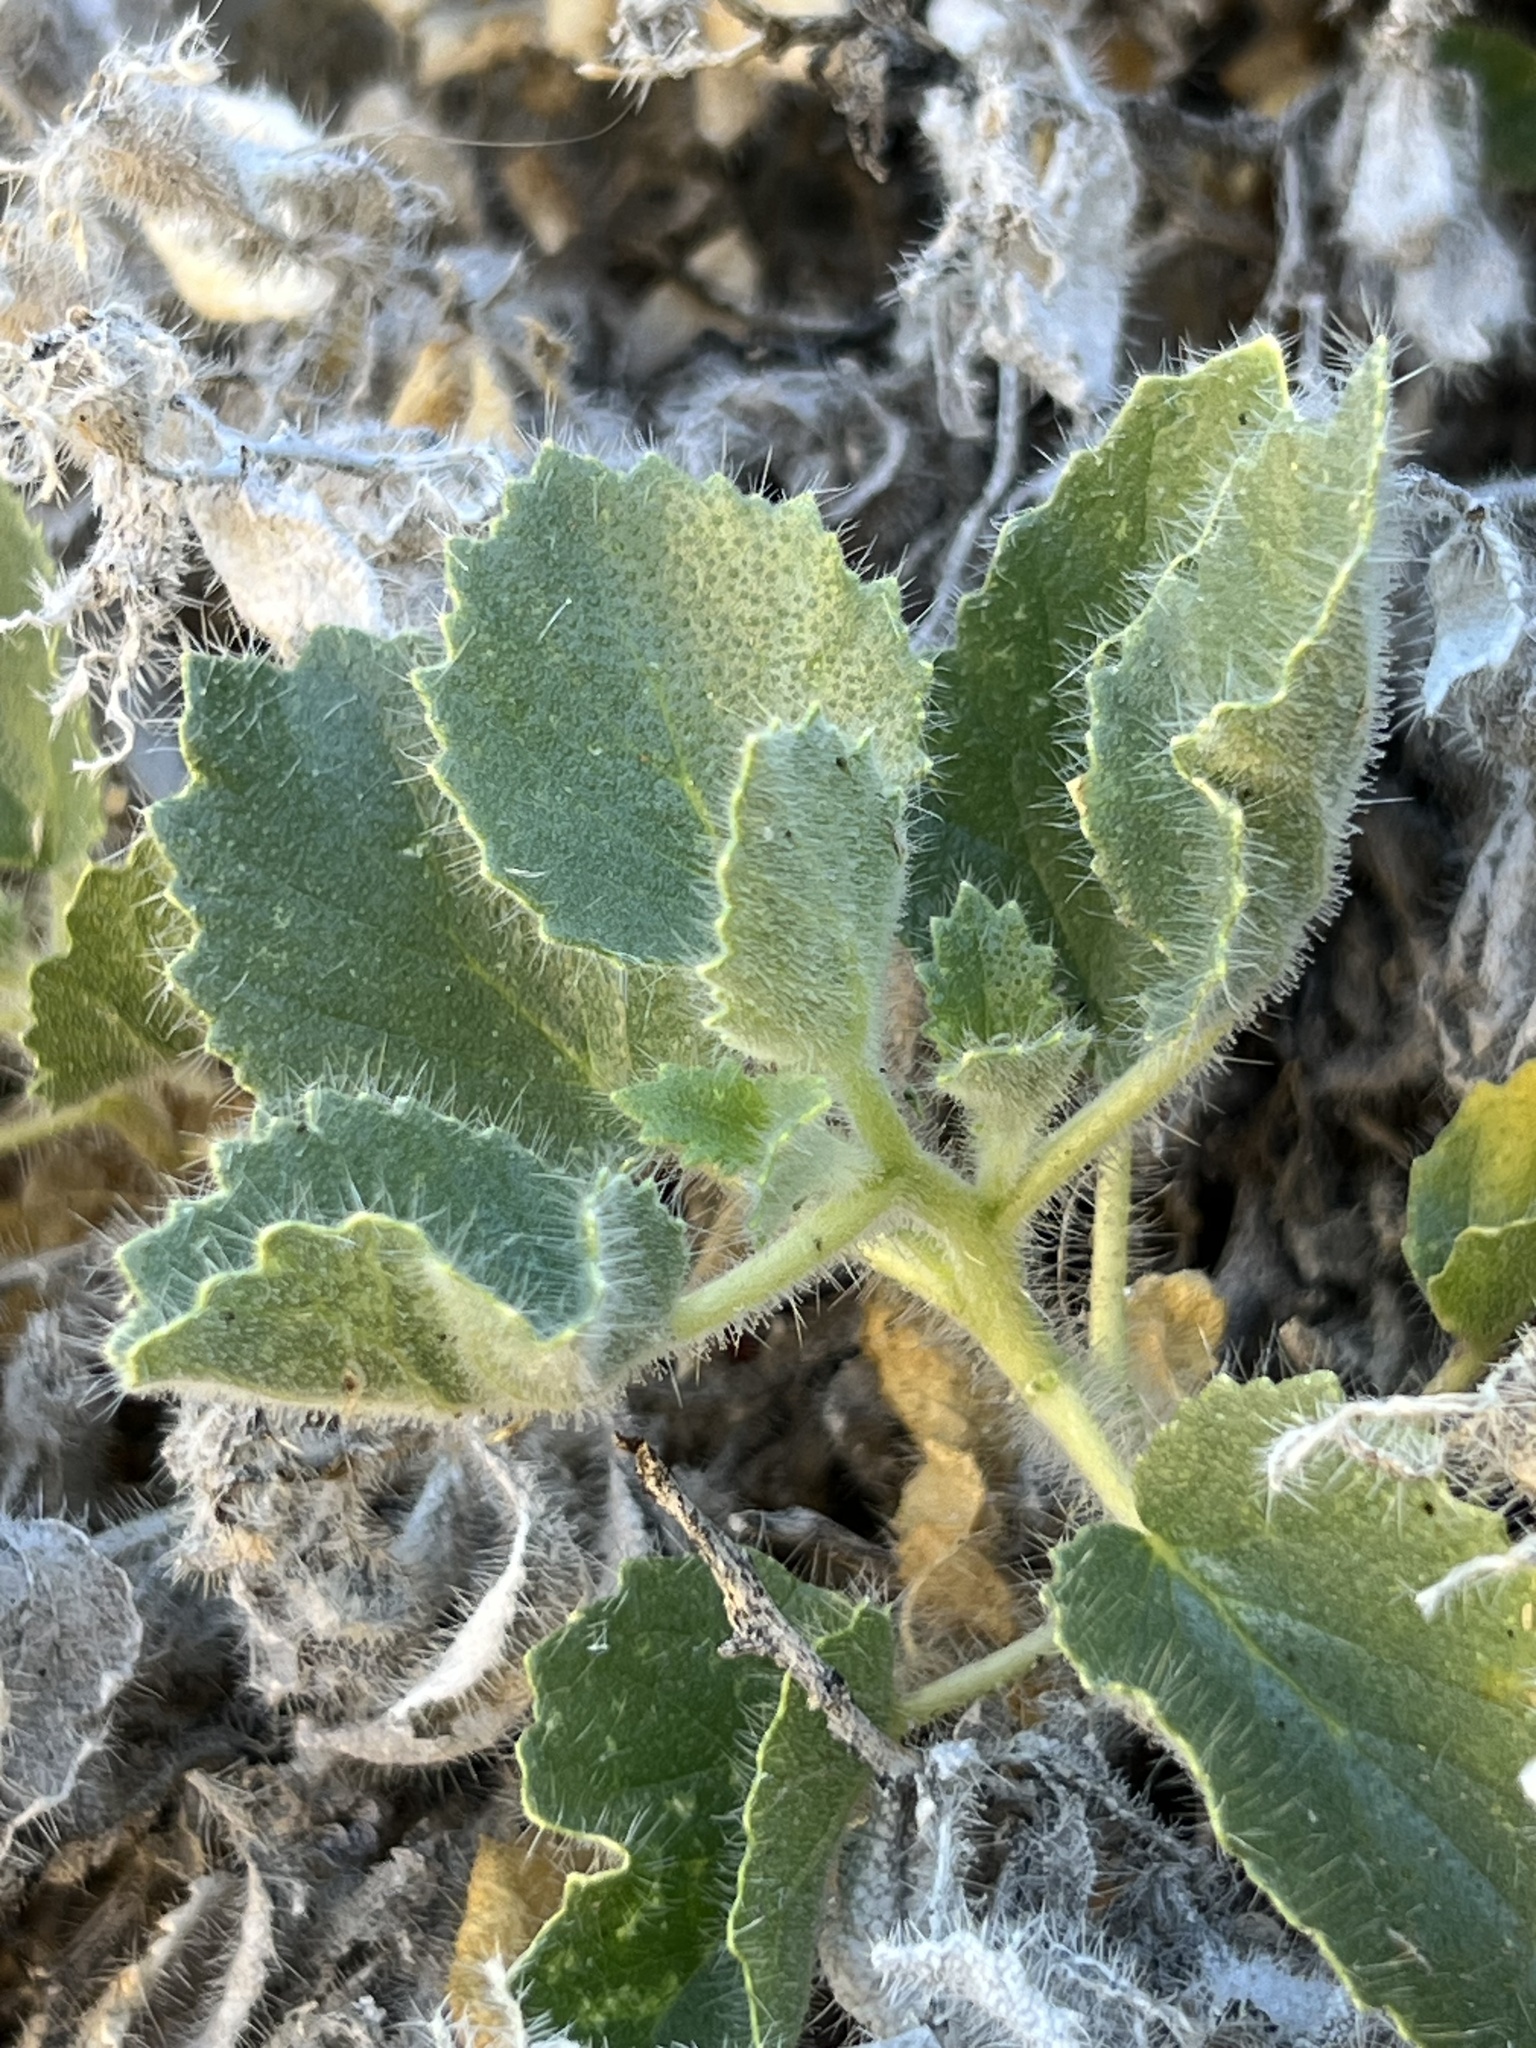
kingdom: Plantae
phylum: Tracheophyta
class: Magnoliopsida
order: Cornales
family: Loasaceae
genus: Eucnide
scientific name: Eucnide urens
